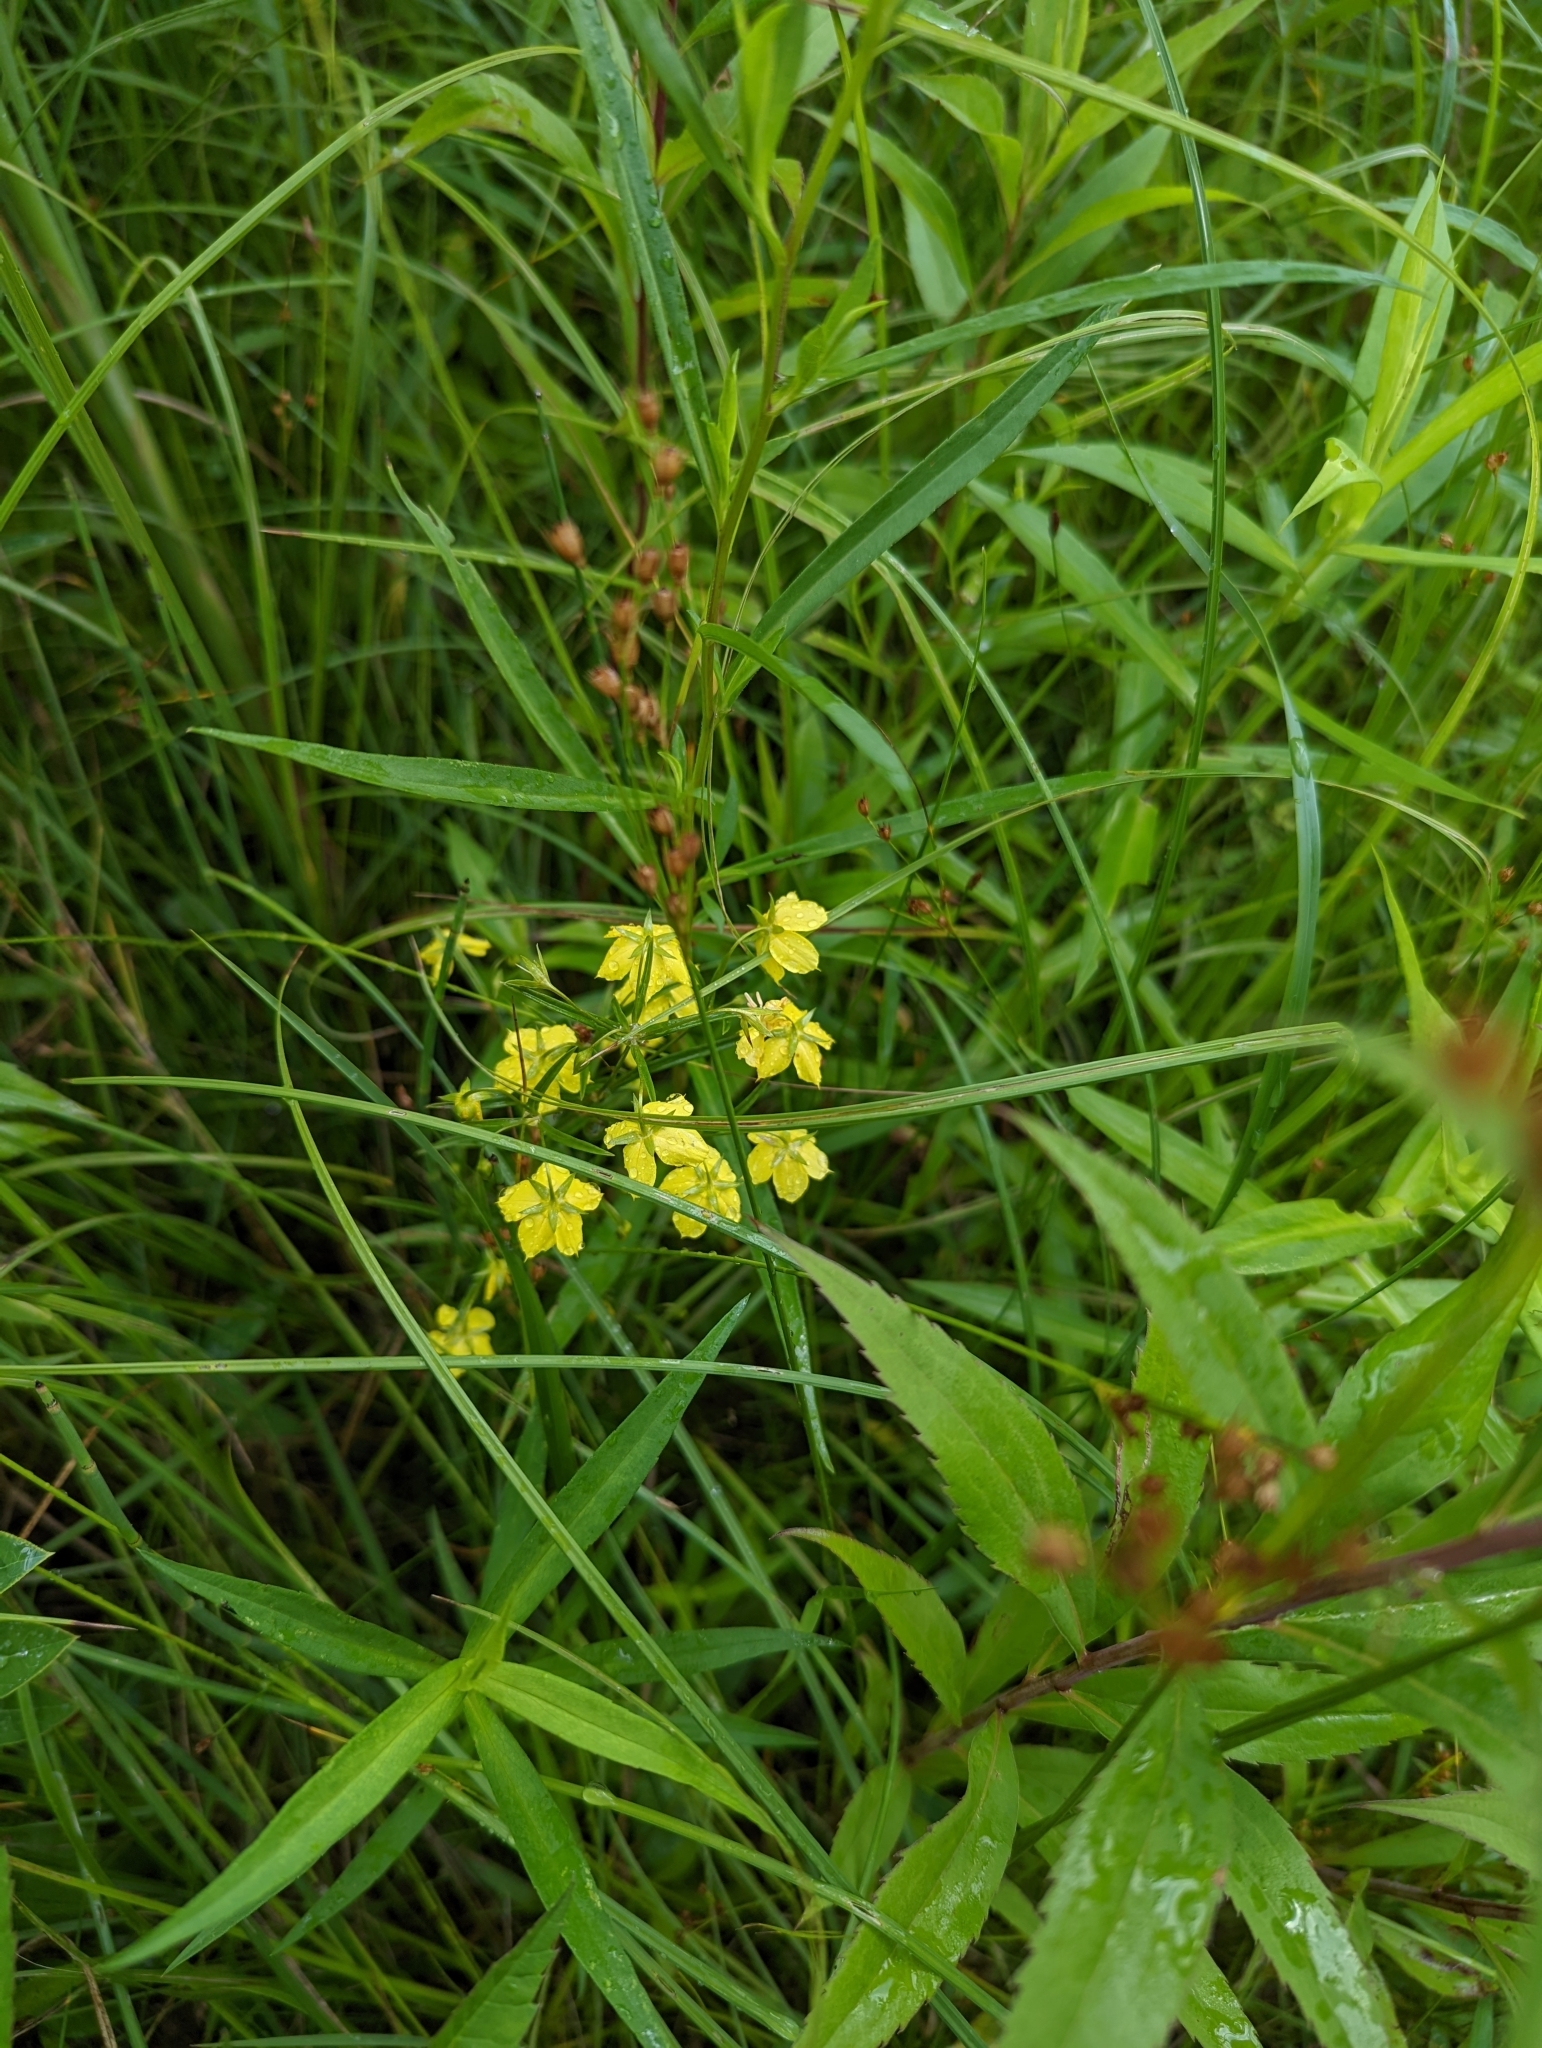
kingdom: Plantae
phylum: Tracheophyta
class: Magnoliopsida
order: Ericales
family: Primulaceae
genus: Lysimachia
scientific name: Lysimachia quadriflora
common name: Four-flowered loosestrife
